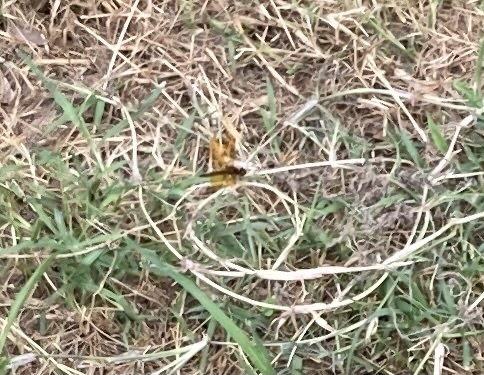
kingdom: Animalia
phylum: Arthropoda
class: Insecta
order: Odonata
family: Libellulidae
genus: Perithemis
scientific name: Perithemis tenera
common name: Eastern amberwing
